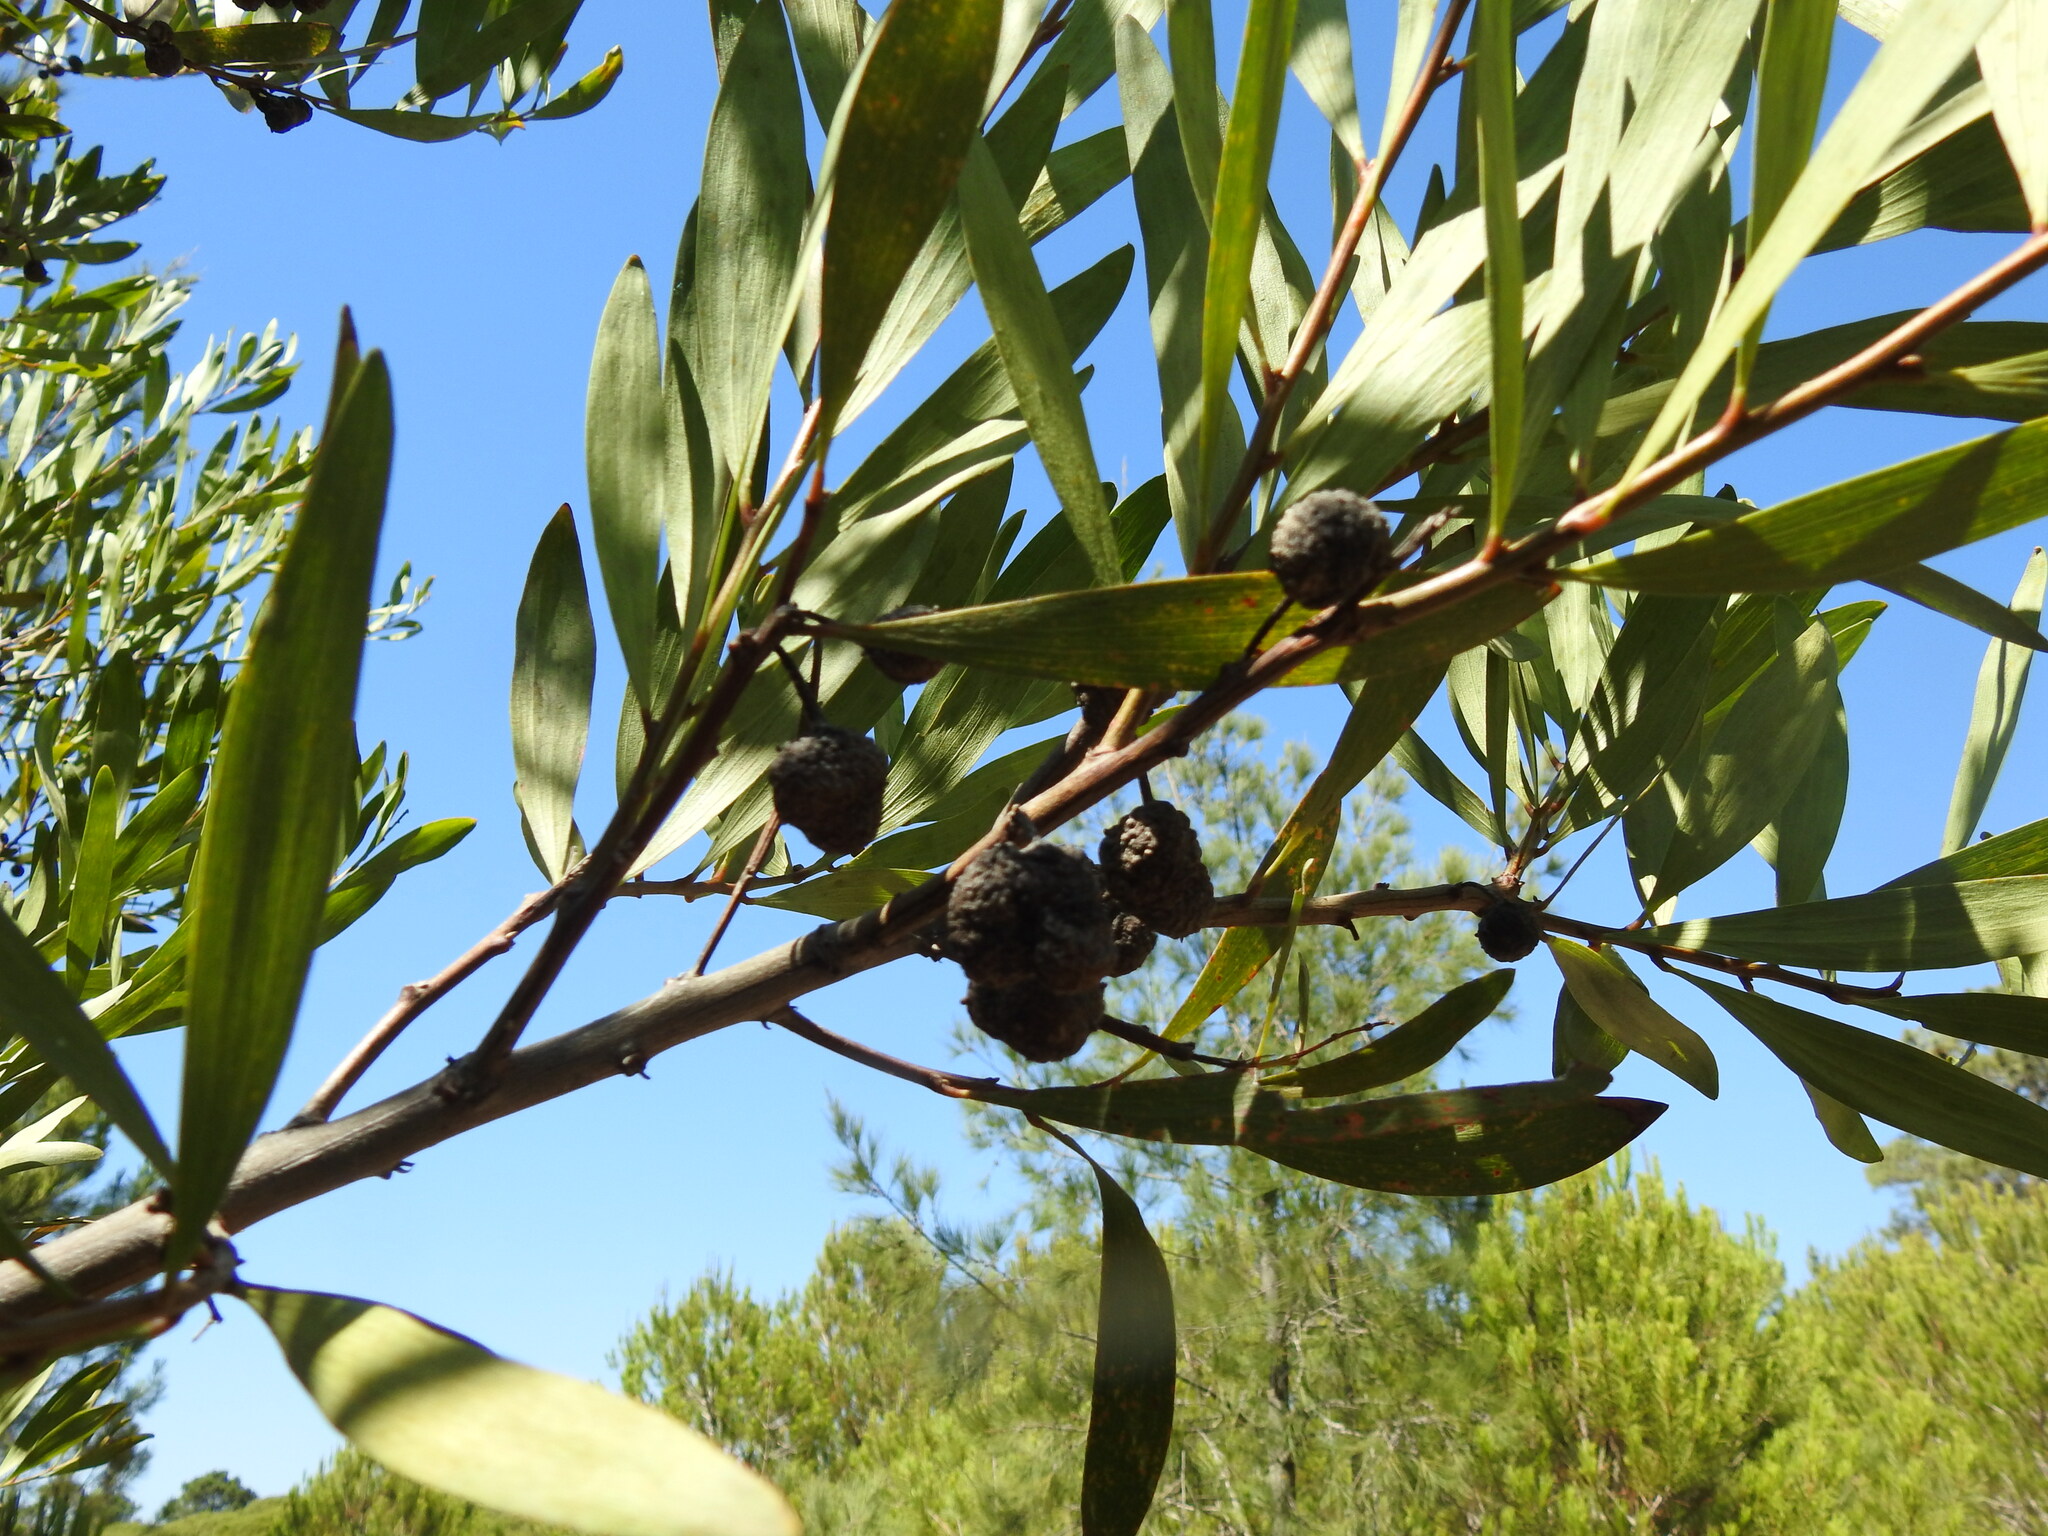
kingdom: Plantae
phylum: Tracheophyta
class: Magnoliopsida
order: Fabales
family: Fabaceae
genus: Acacia
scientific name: Acacia longifolia
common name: Sydney golden wattle
